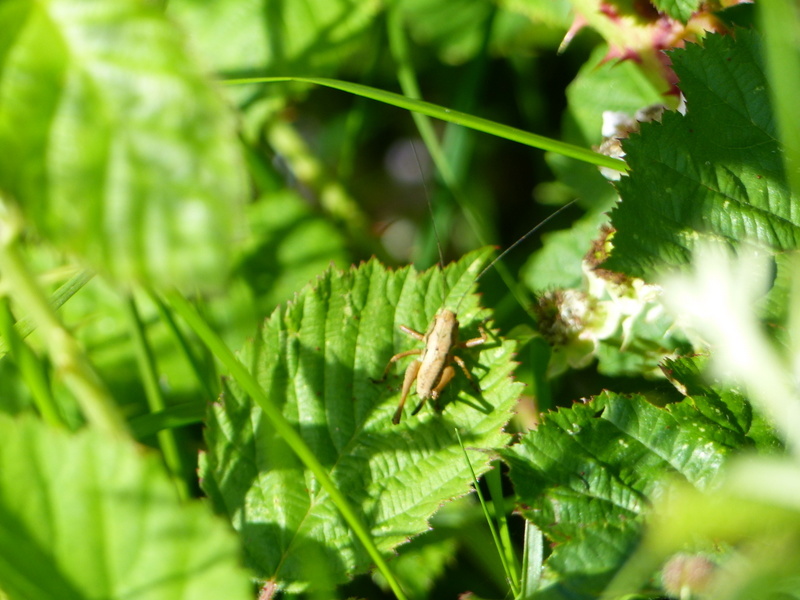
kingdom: Animalia
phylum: Arthropoda
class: Insecta
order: Orthoptera
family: Tettigoniidae
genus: Pholidoptera
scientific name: Pholidoptera griseoaptera
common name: Dark bush-cricket
